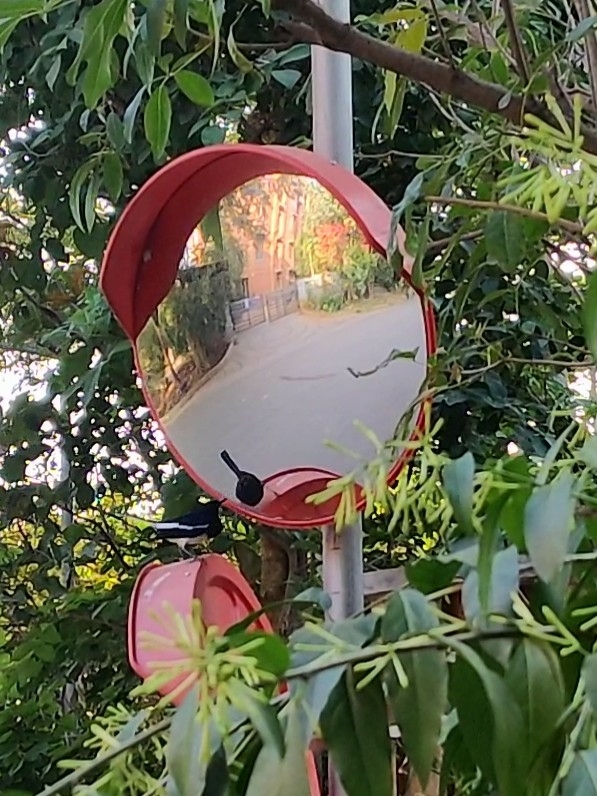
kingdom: Animalia
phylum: Chordata
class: Aves
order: Passeriformes
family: Muscicapidae
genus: Copsychus
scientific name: Copsychus saularis
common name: Oriental magpie-robin
